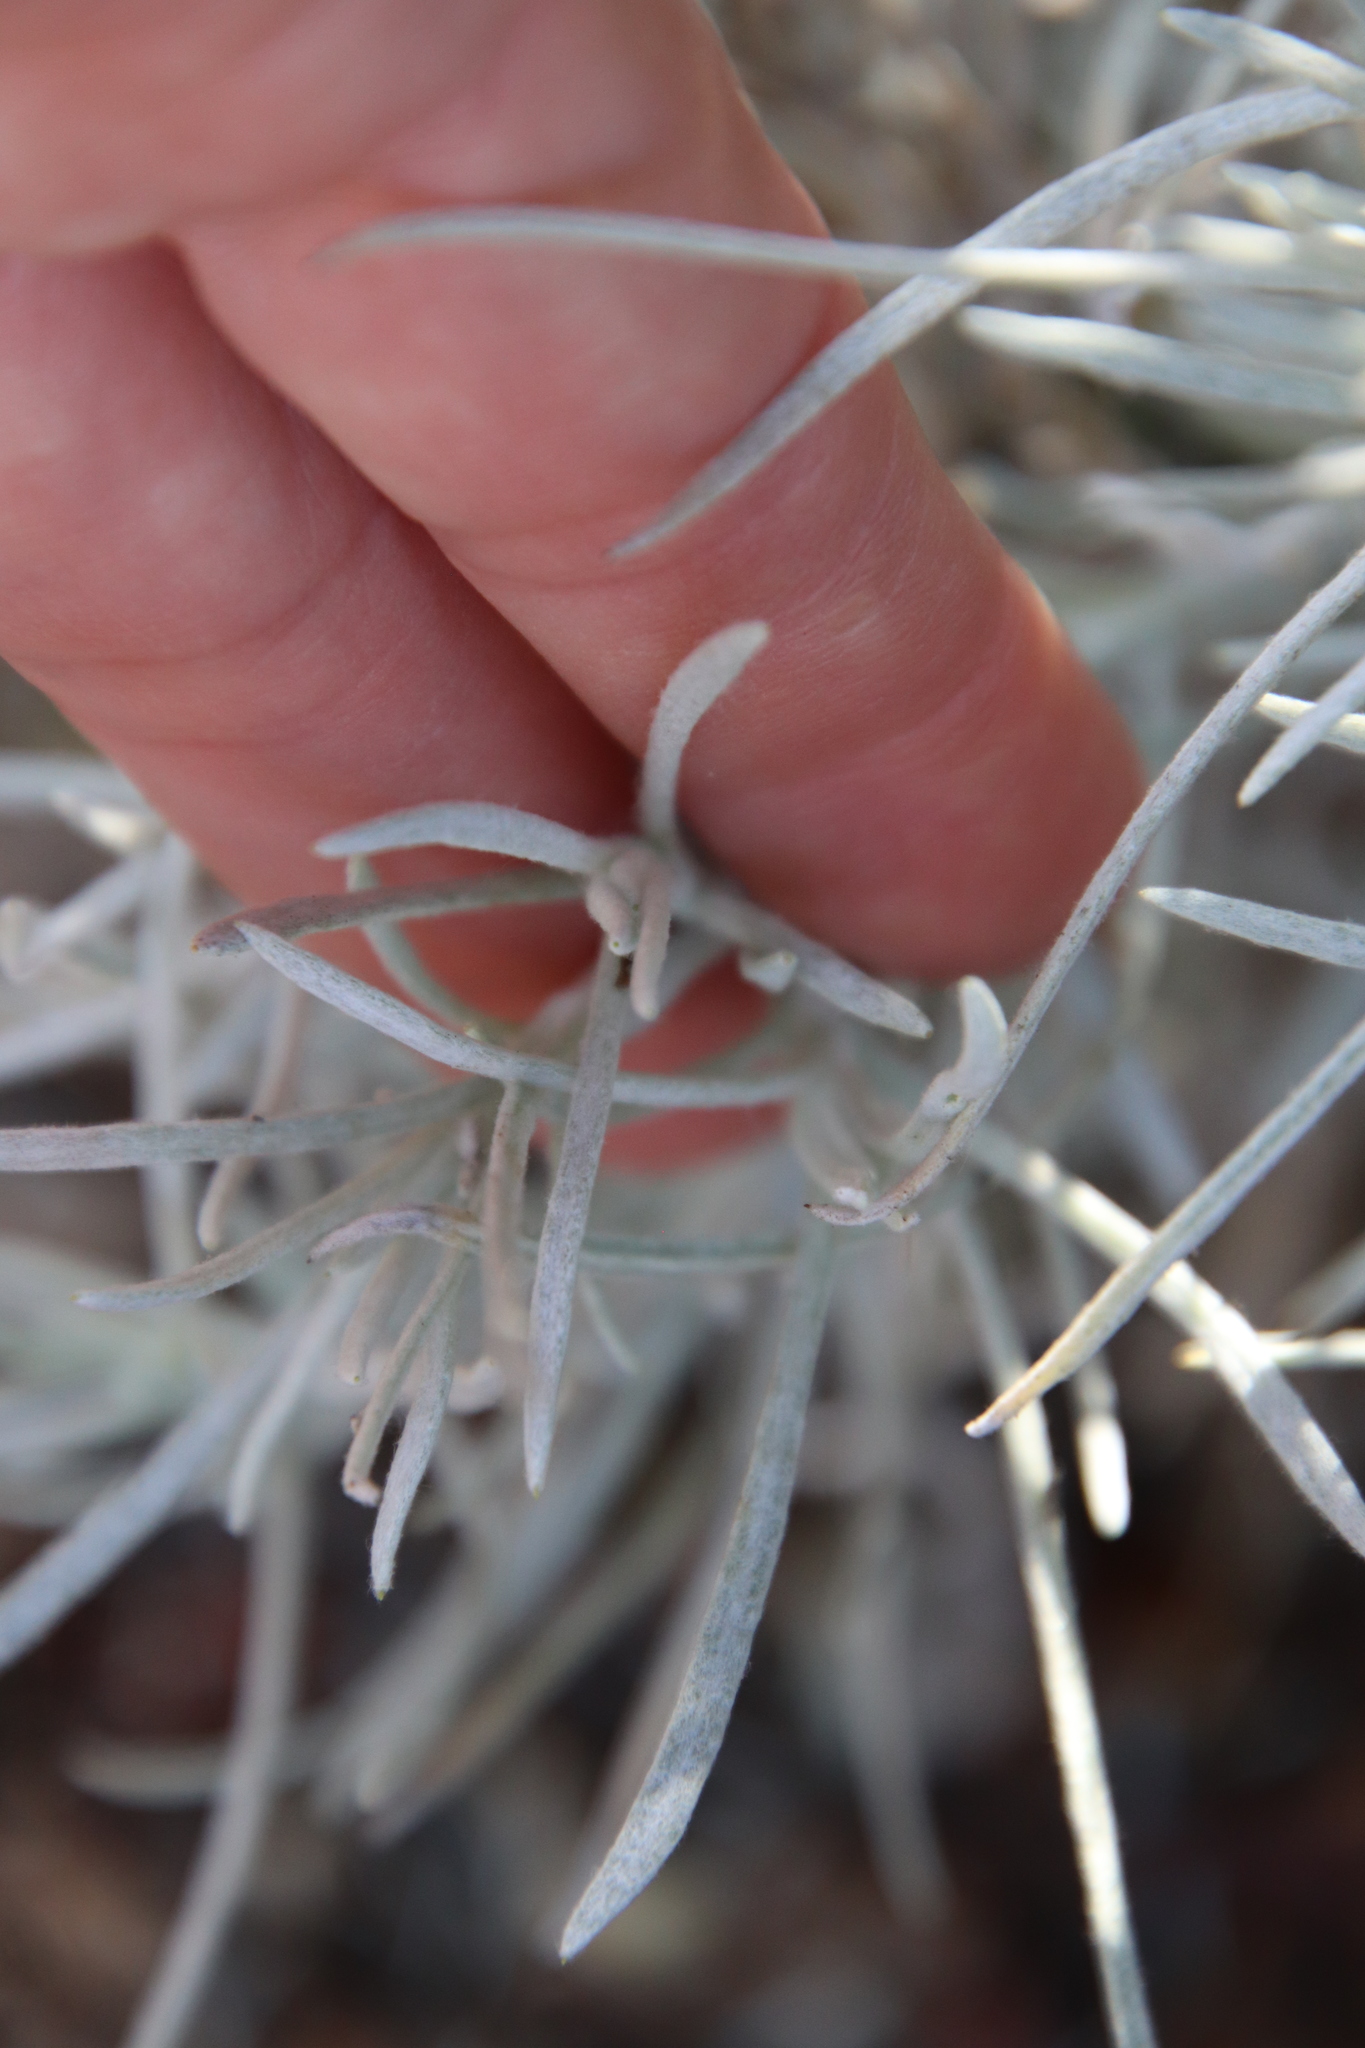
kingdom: Plantae
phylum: Tracheophyta
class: Magnoliopsida
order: Asterales
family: Asteraceae
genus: Pseudognaphalium
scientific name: Pseudognaphalium beneolens
